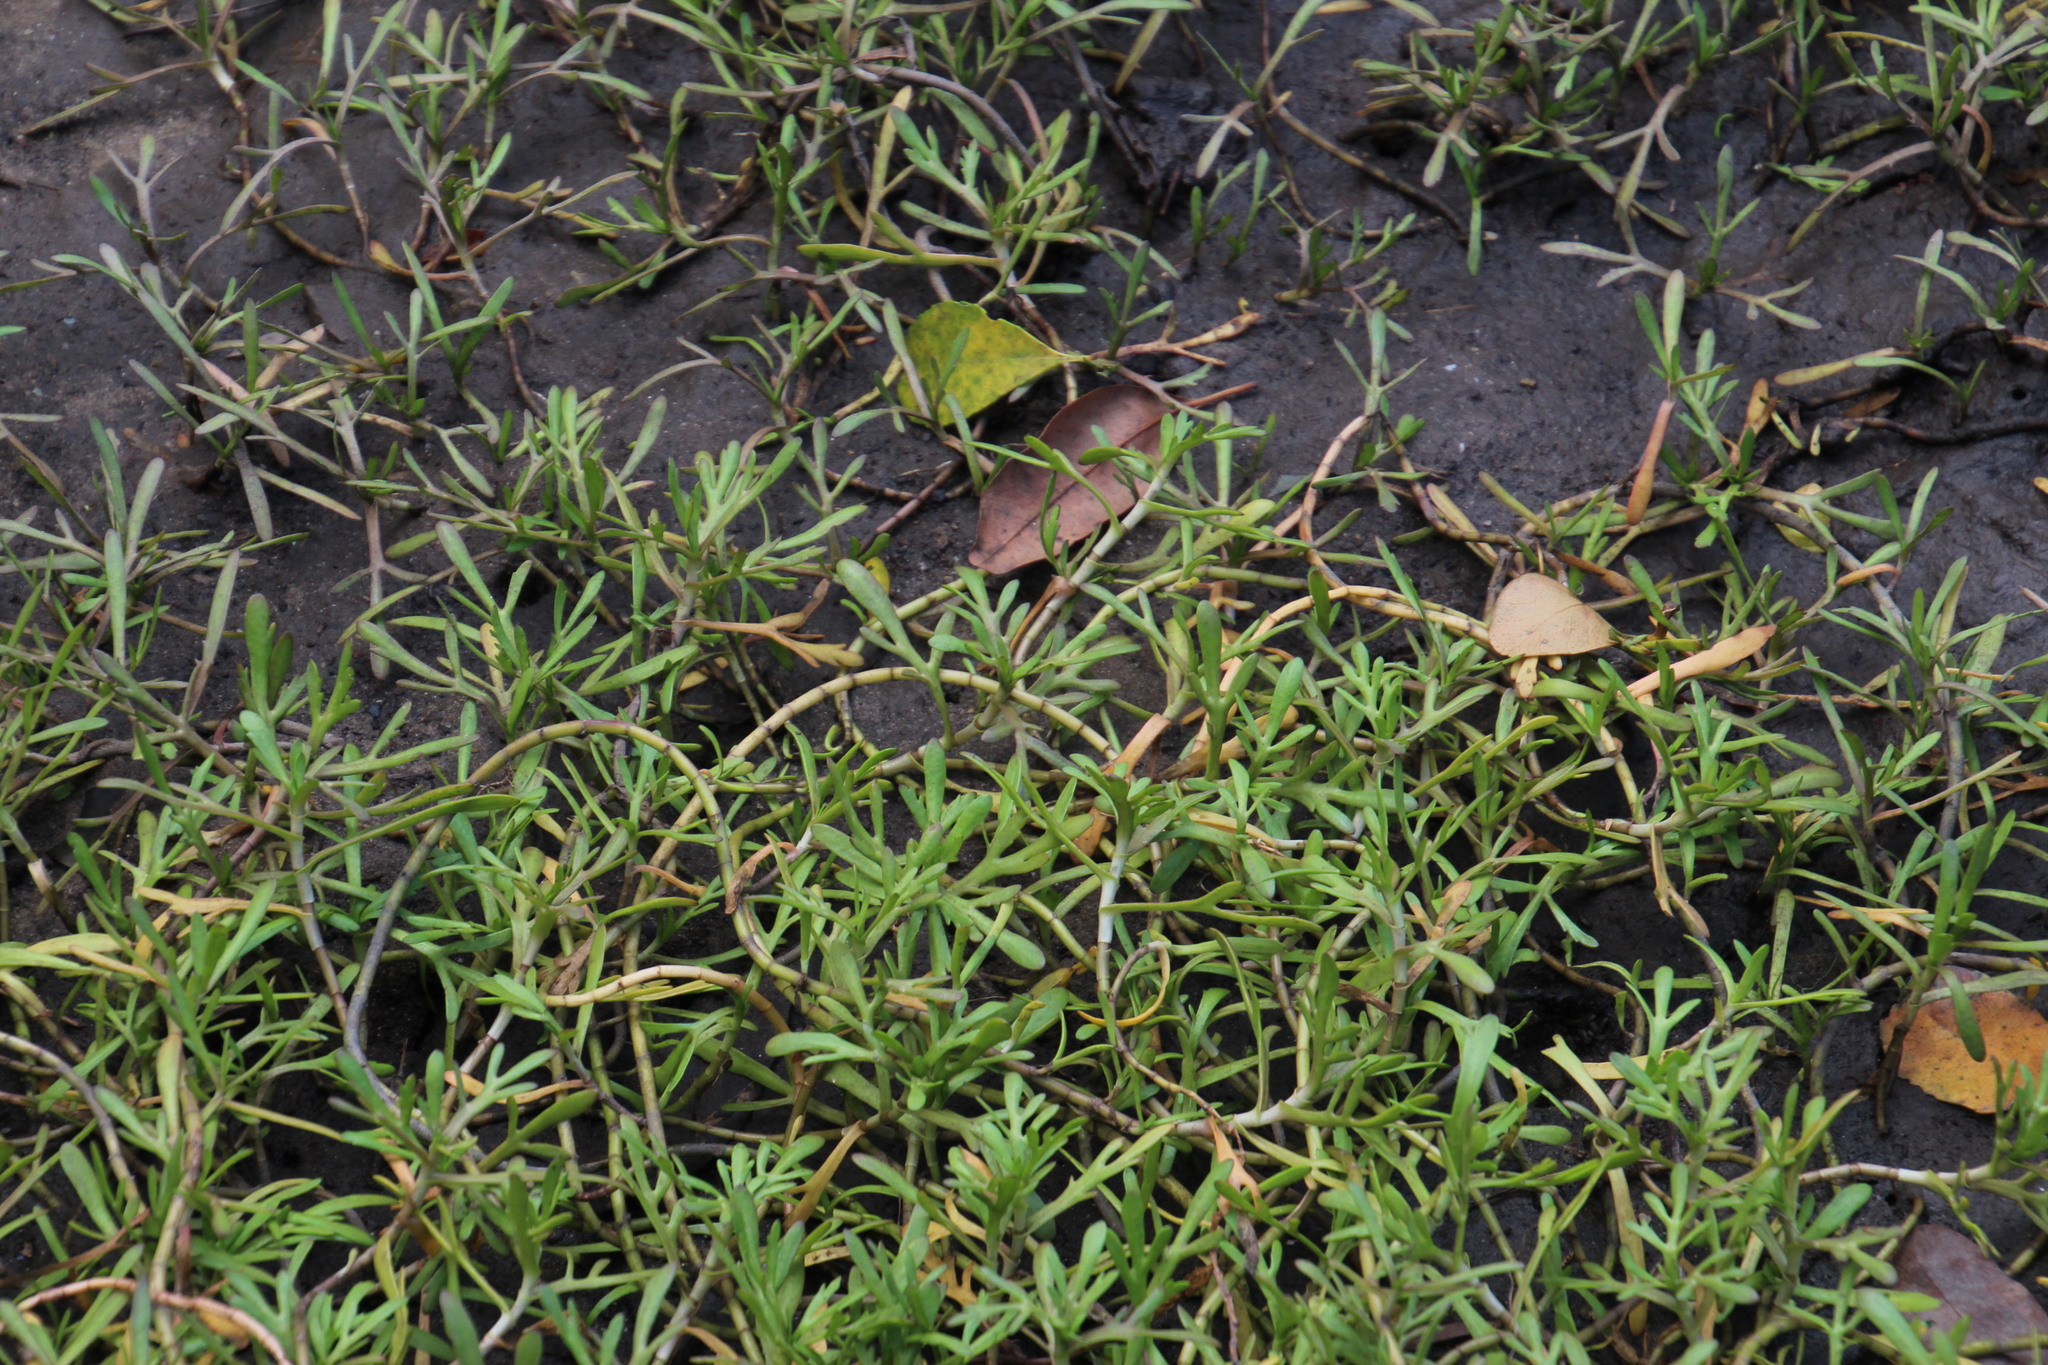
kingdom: Plantae
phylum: Tracheophyta
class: Magnoliopsida
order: Asterales
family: Asteraceae
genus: Cotula
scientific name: Cotula coronopifolia
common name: Buttonweed
